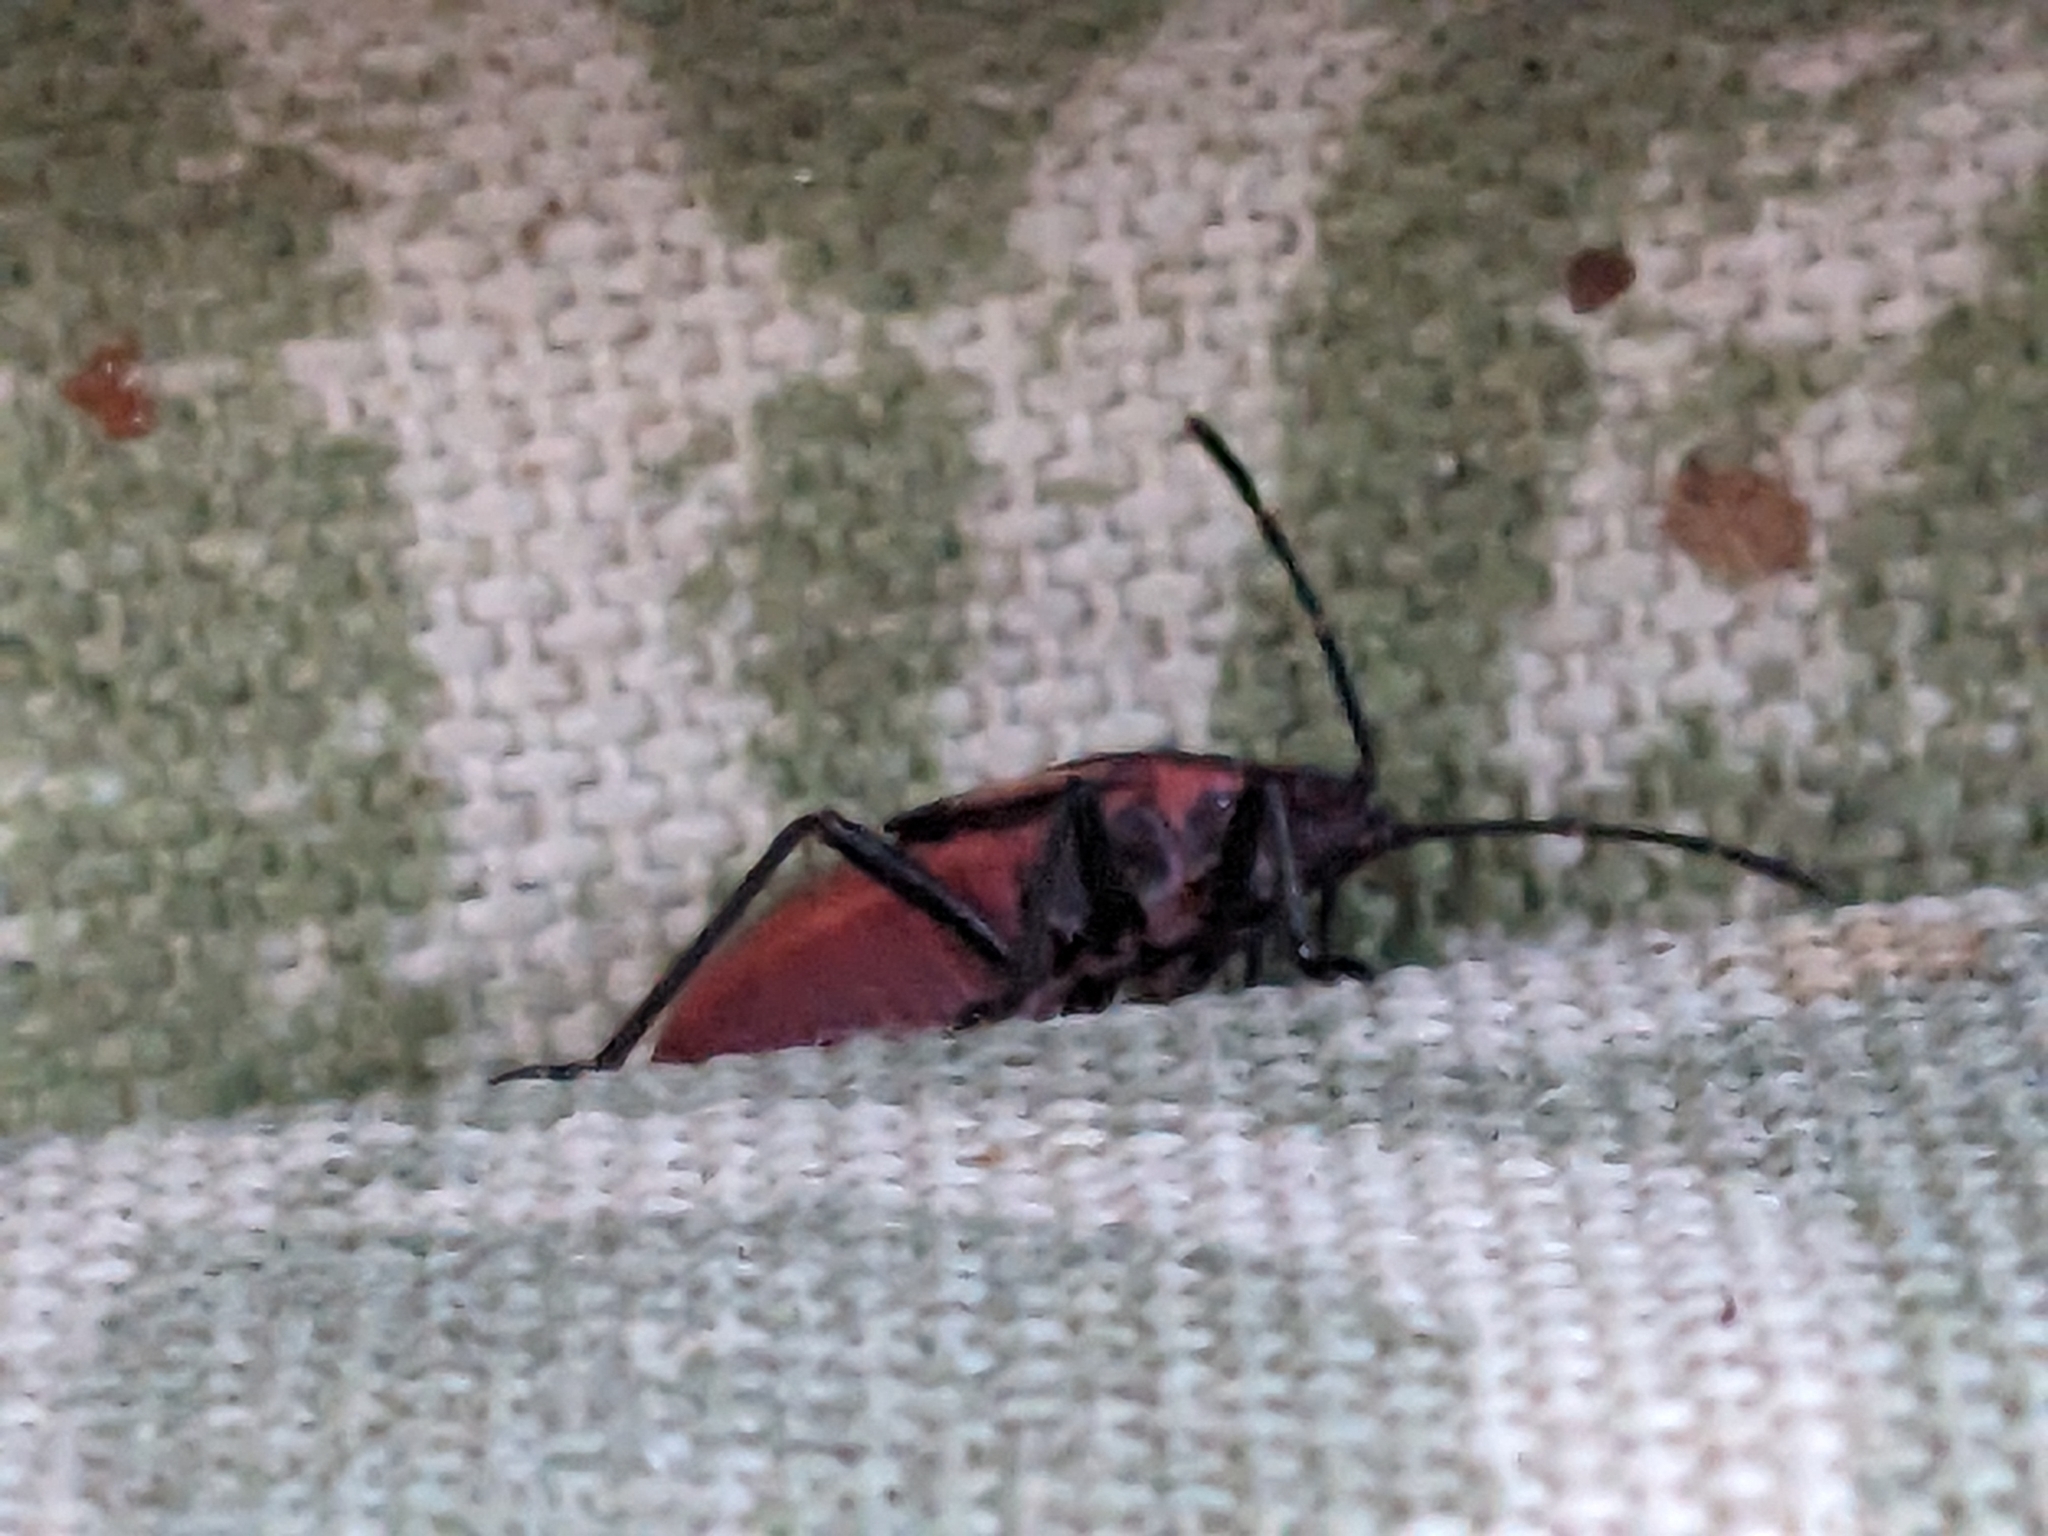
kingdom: Animalia
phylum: Arthropoda
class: Insecta
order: Hemiptera
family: Rhopalidae
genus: Boisea
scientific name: Boisea trivittata
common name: Boxelder bug
